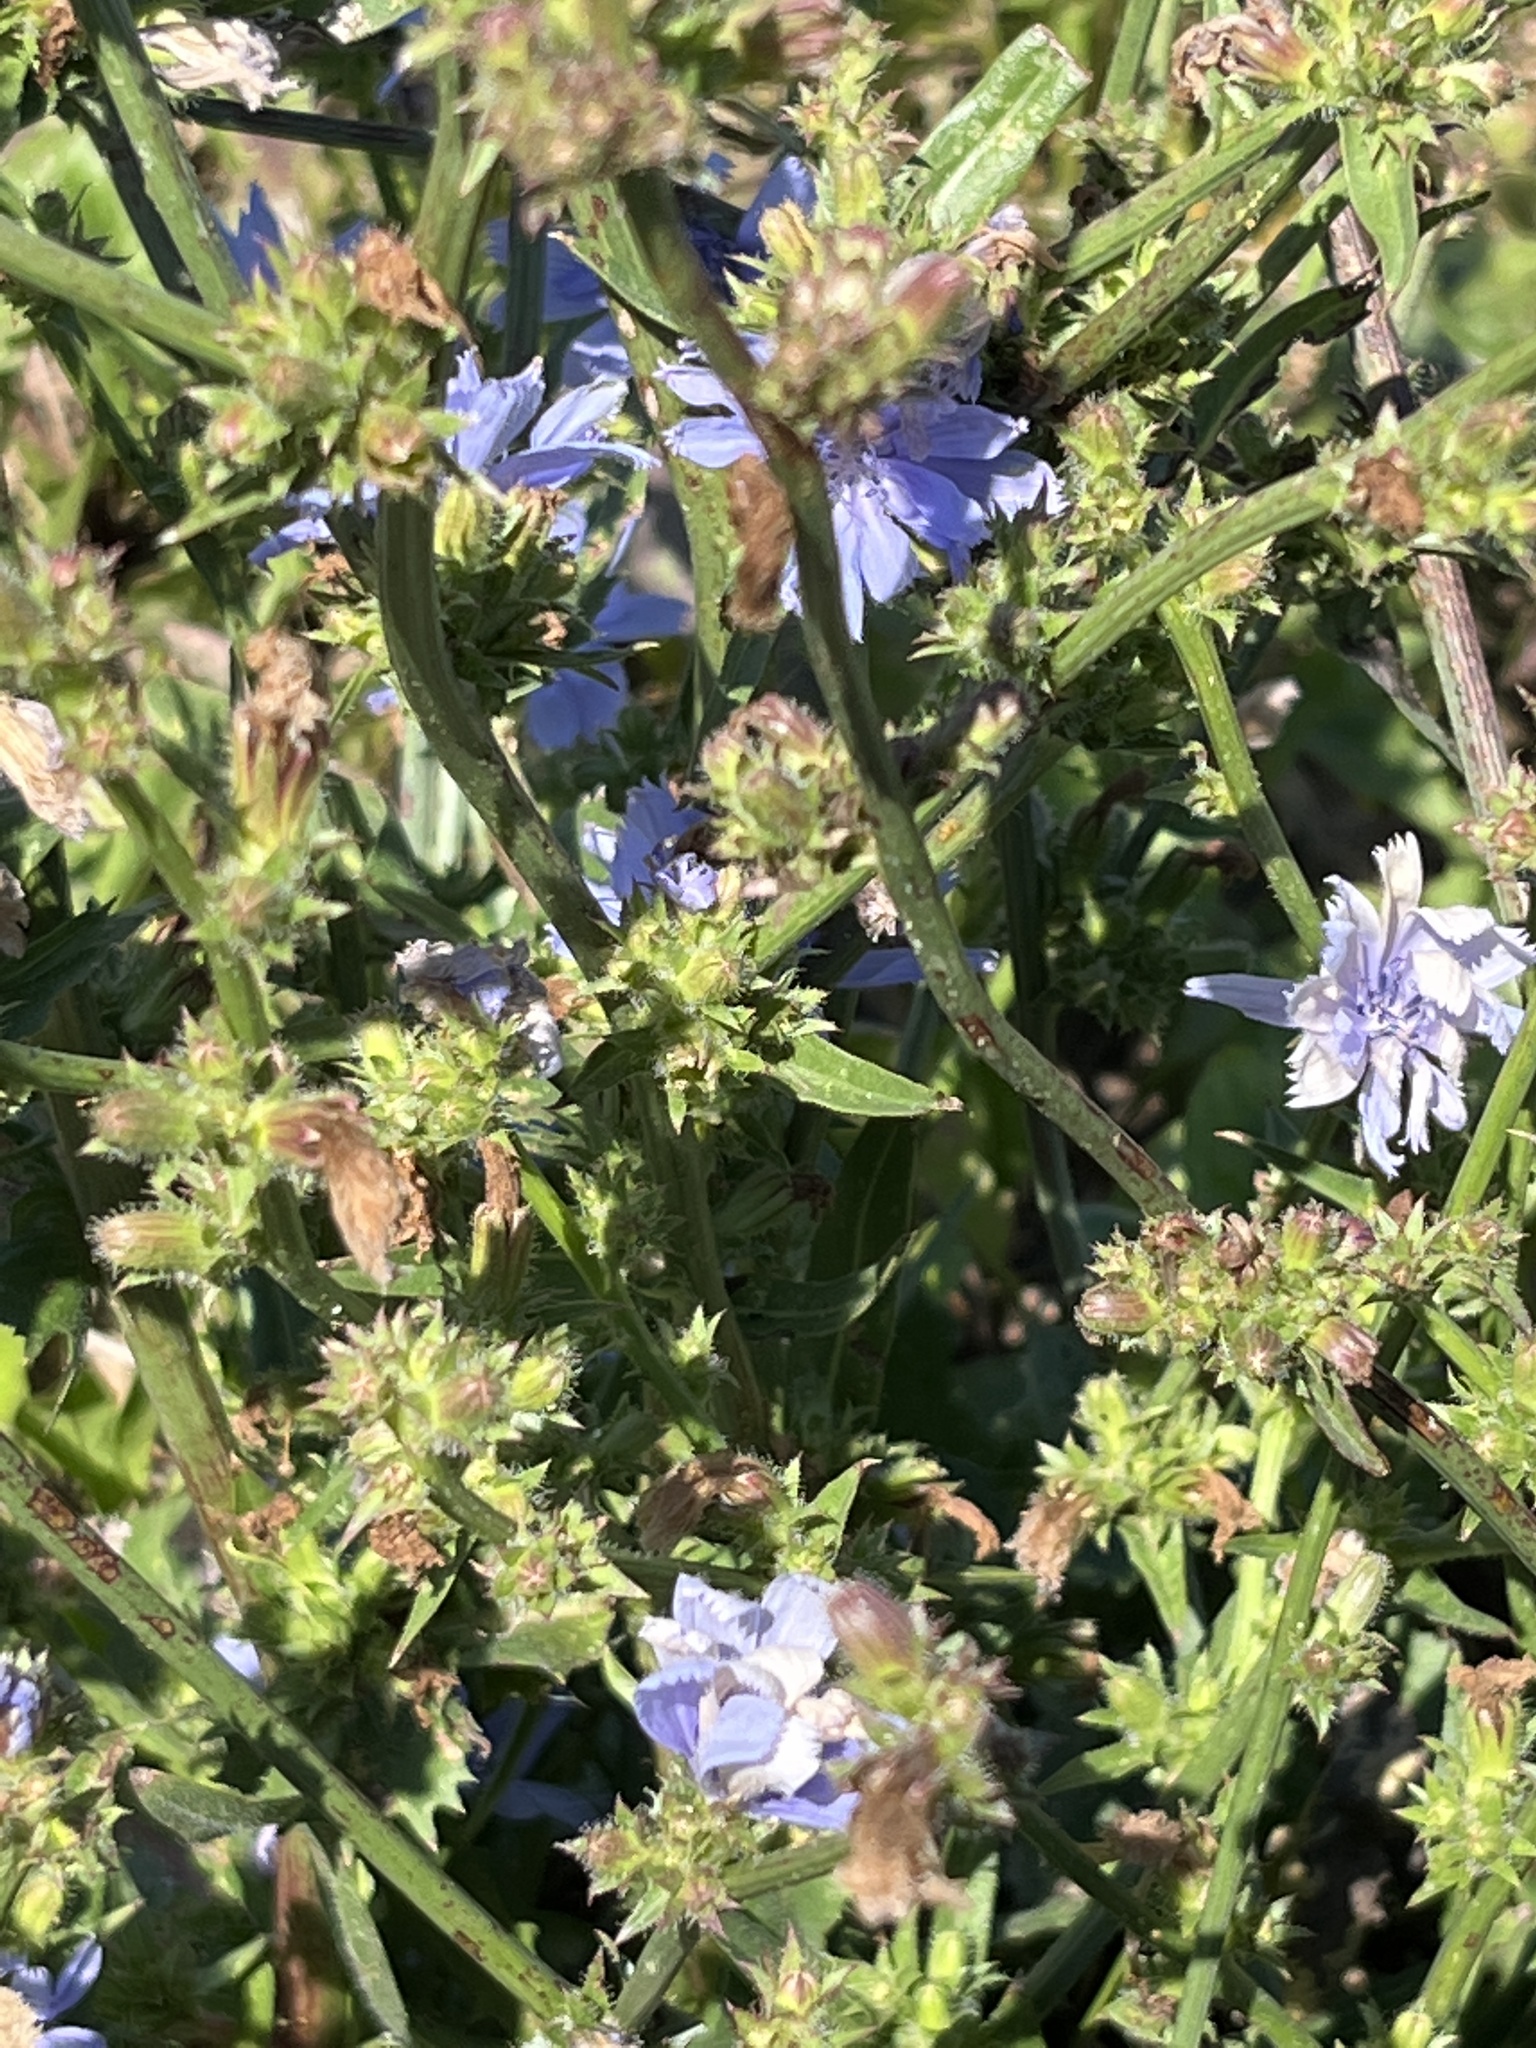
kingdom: Plantae
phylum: Tracheophyta
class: Magnoliopsida
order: Asterales
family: Asteraceae
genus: Cichorium
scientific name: Cichorium intybus
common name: Chicory
